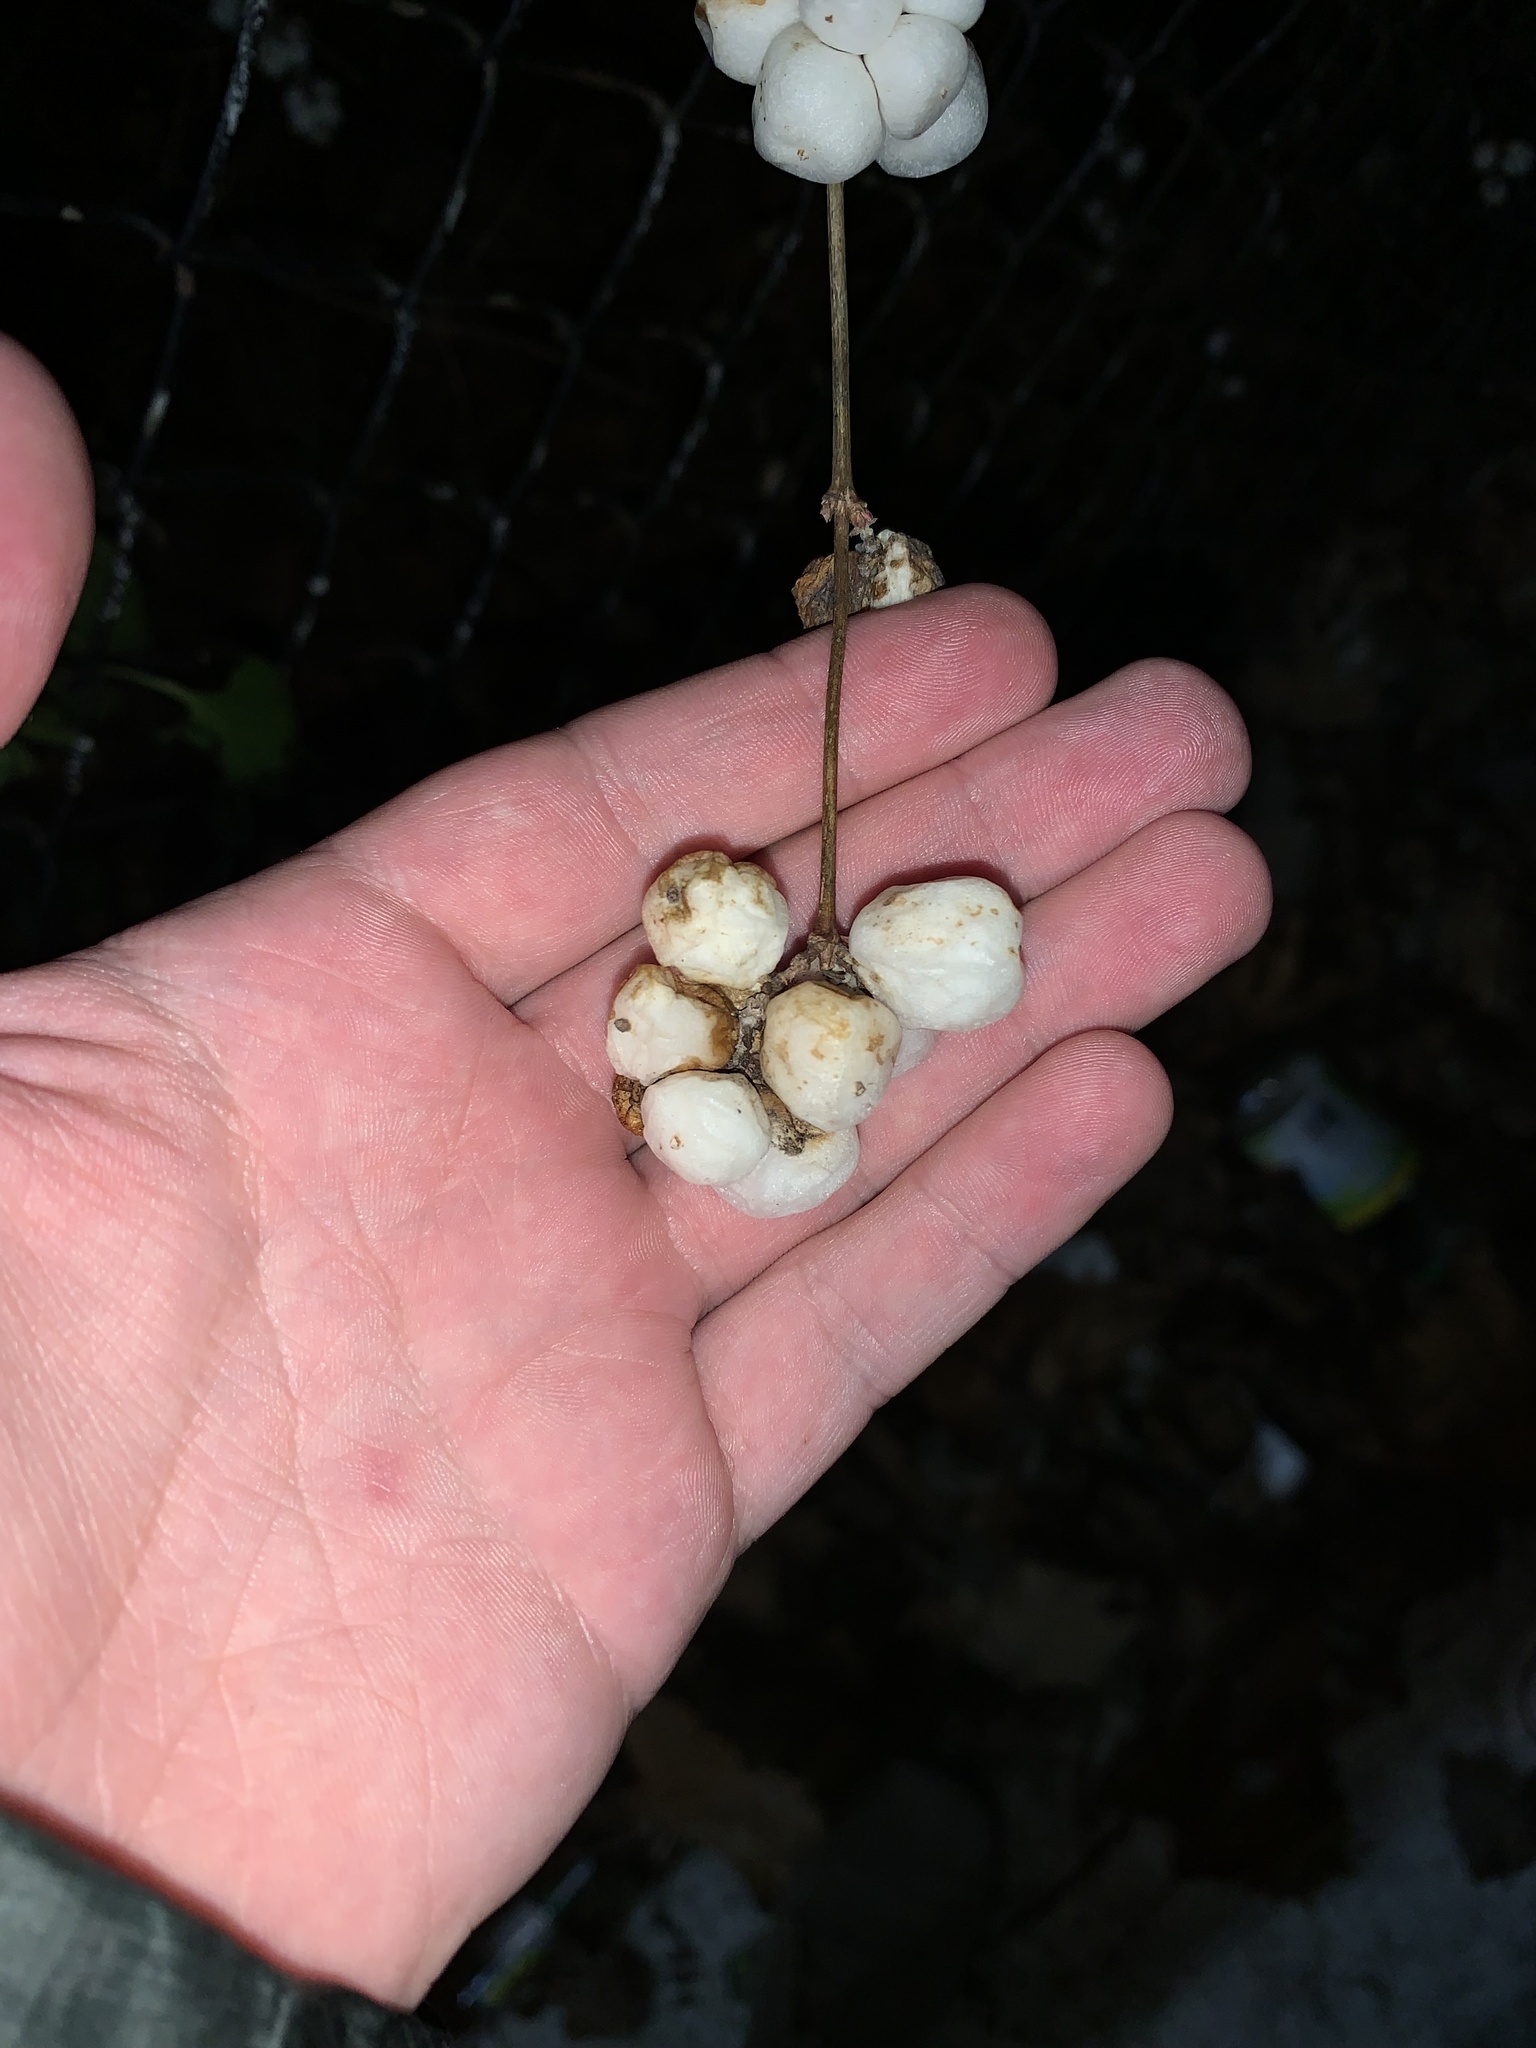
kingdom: Plantae
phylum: Tracheophyta
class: Magnoliopsida
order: Dipsacales
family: Caprifoliaceae
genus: Symphoricarpos
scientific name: Symphoricarpos albus
